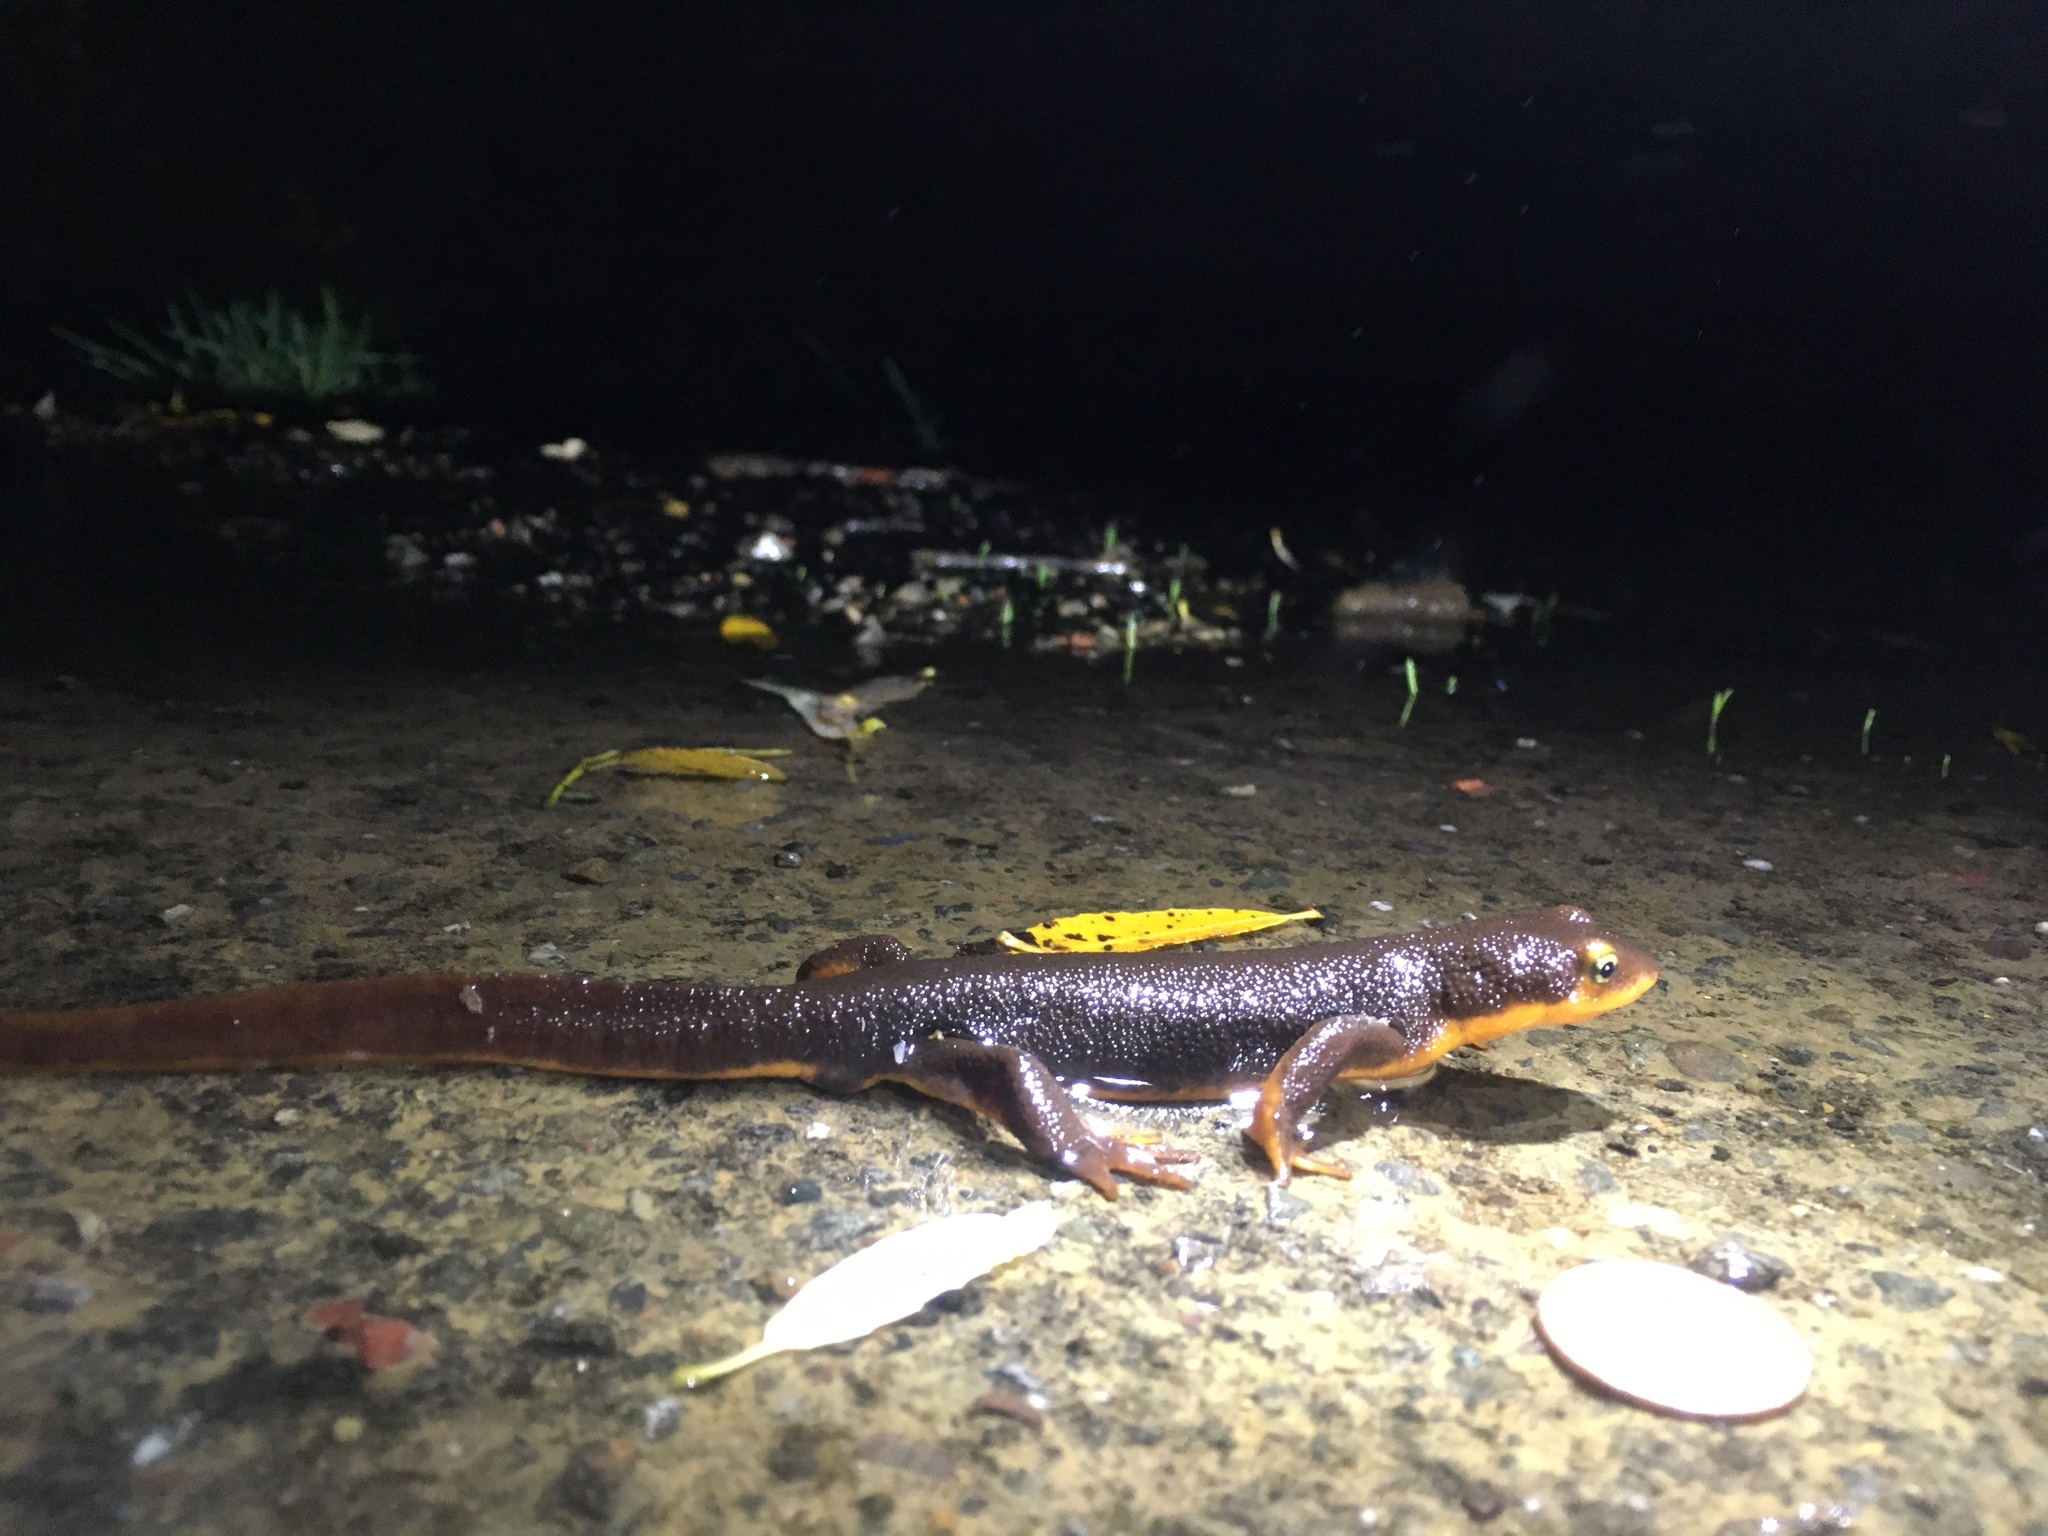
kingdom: Animalia
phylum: Chordata
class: Amphibia
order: Caudata
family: Salamandridae
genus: Taricha
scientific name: Taricha torosa
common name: California newt
